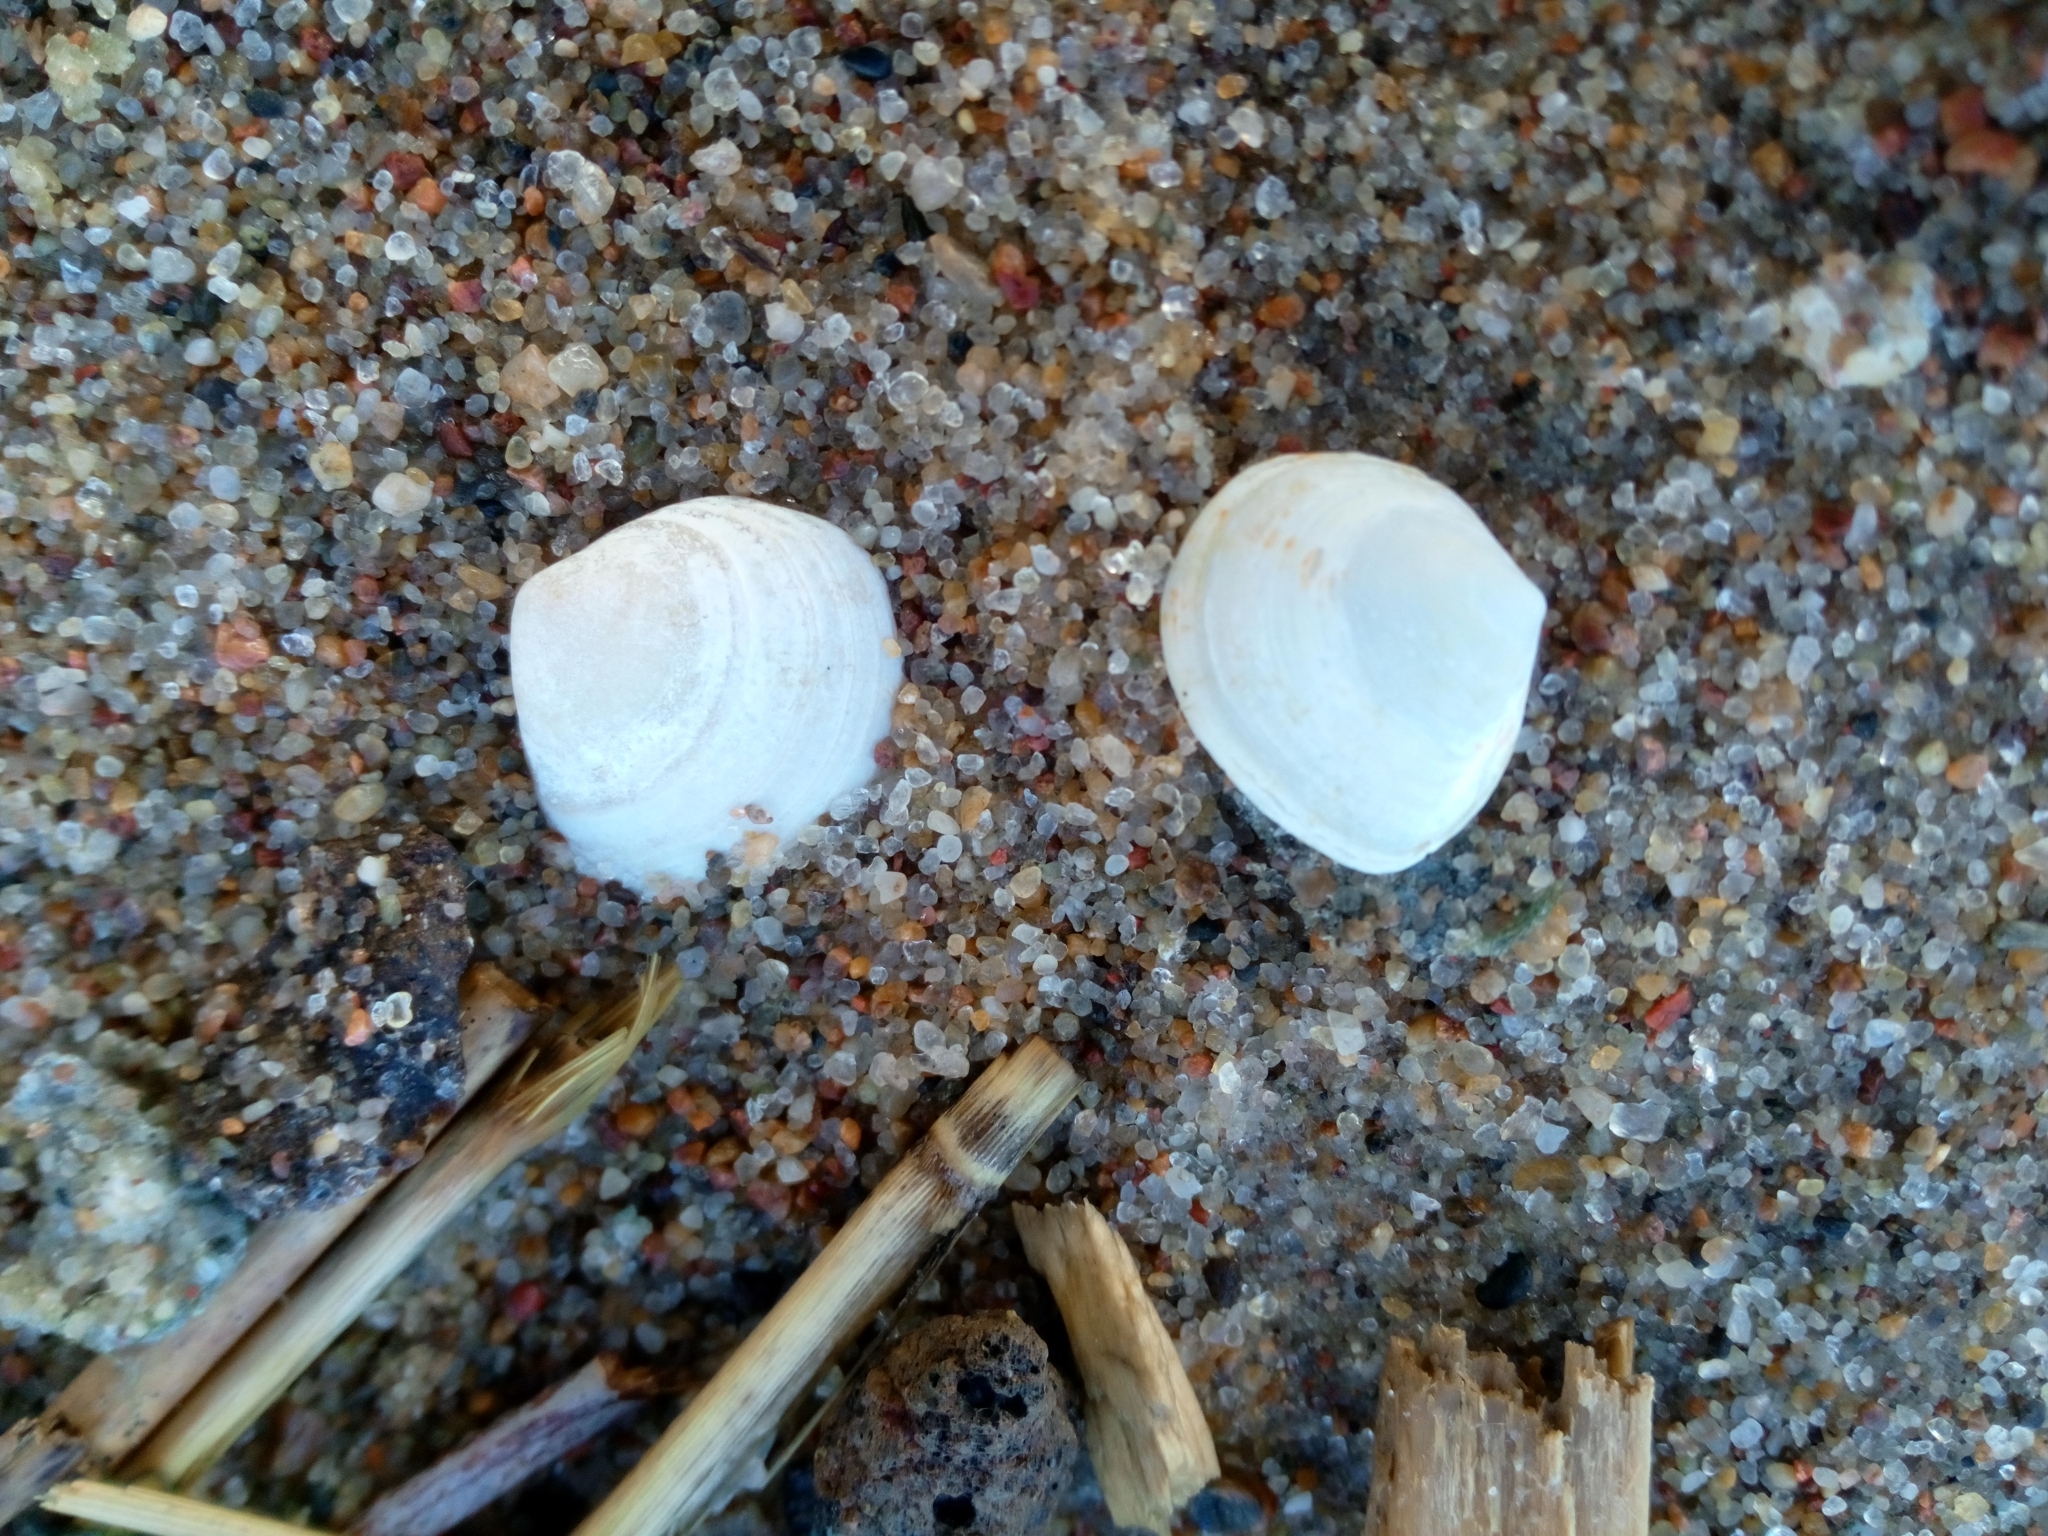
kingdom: Animalia
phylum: Mollusca
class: Bivalvia
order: Cardiida
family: Tellinidae
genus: Macoma
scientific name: Macoma balthica
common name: Baltic tellin
